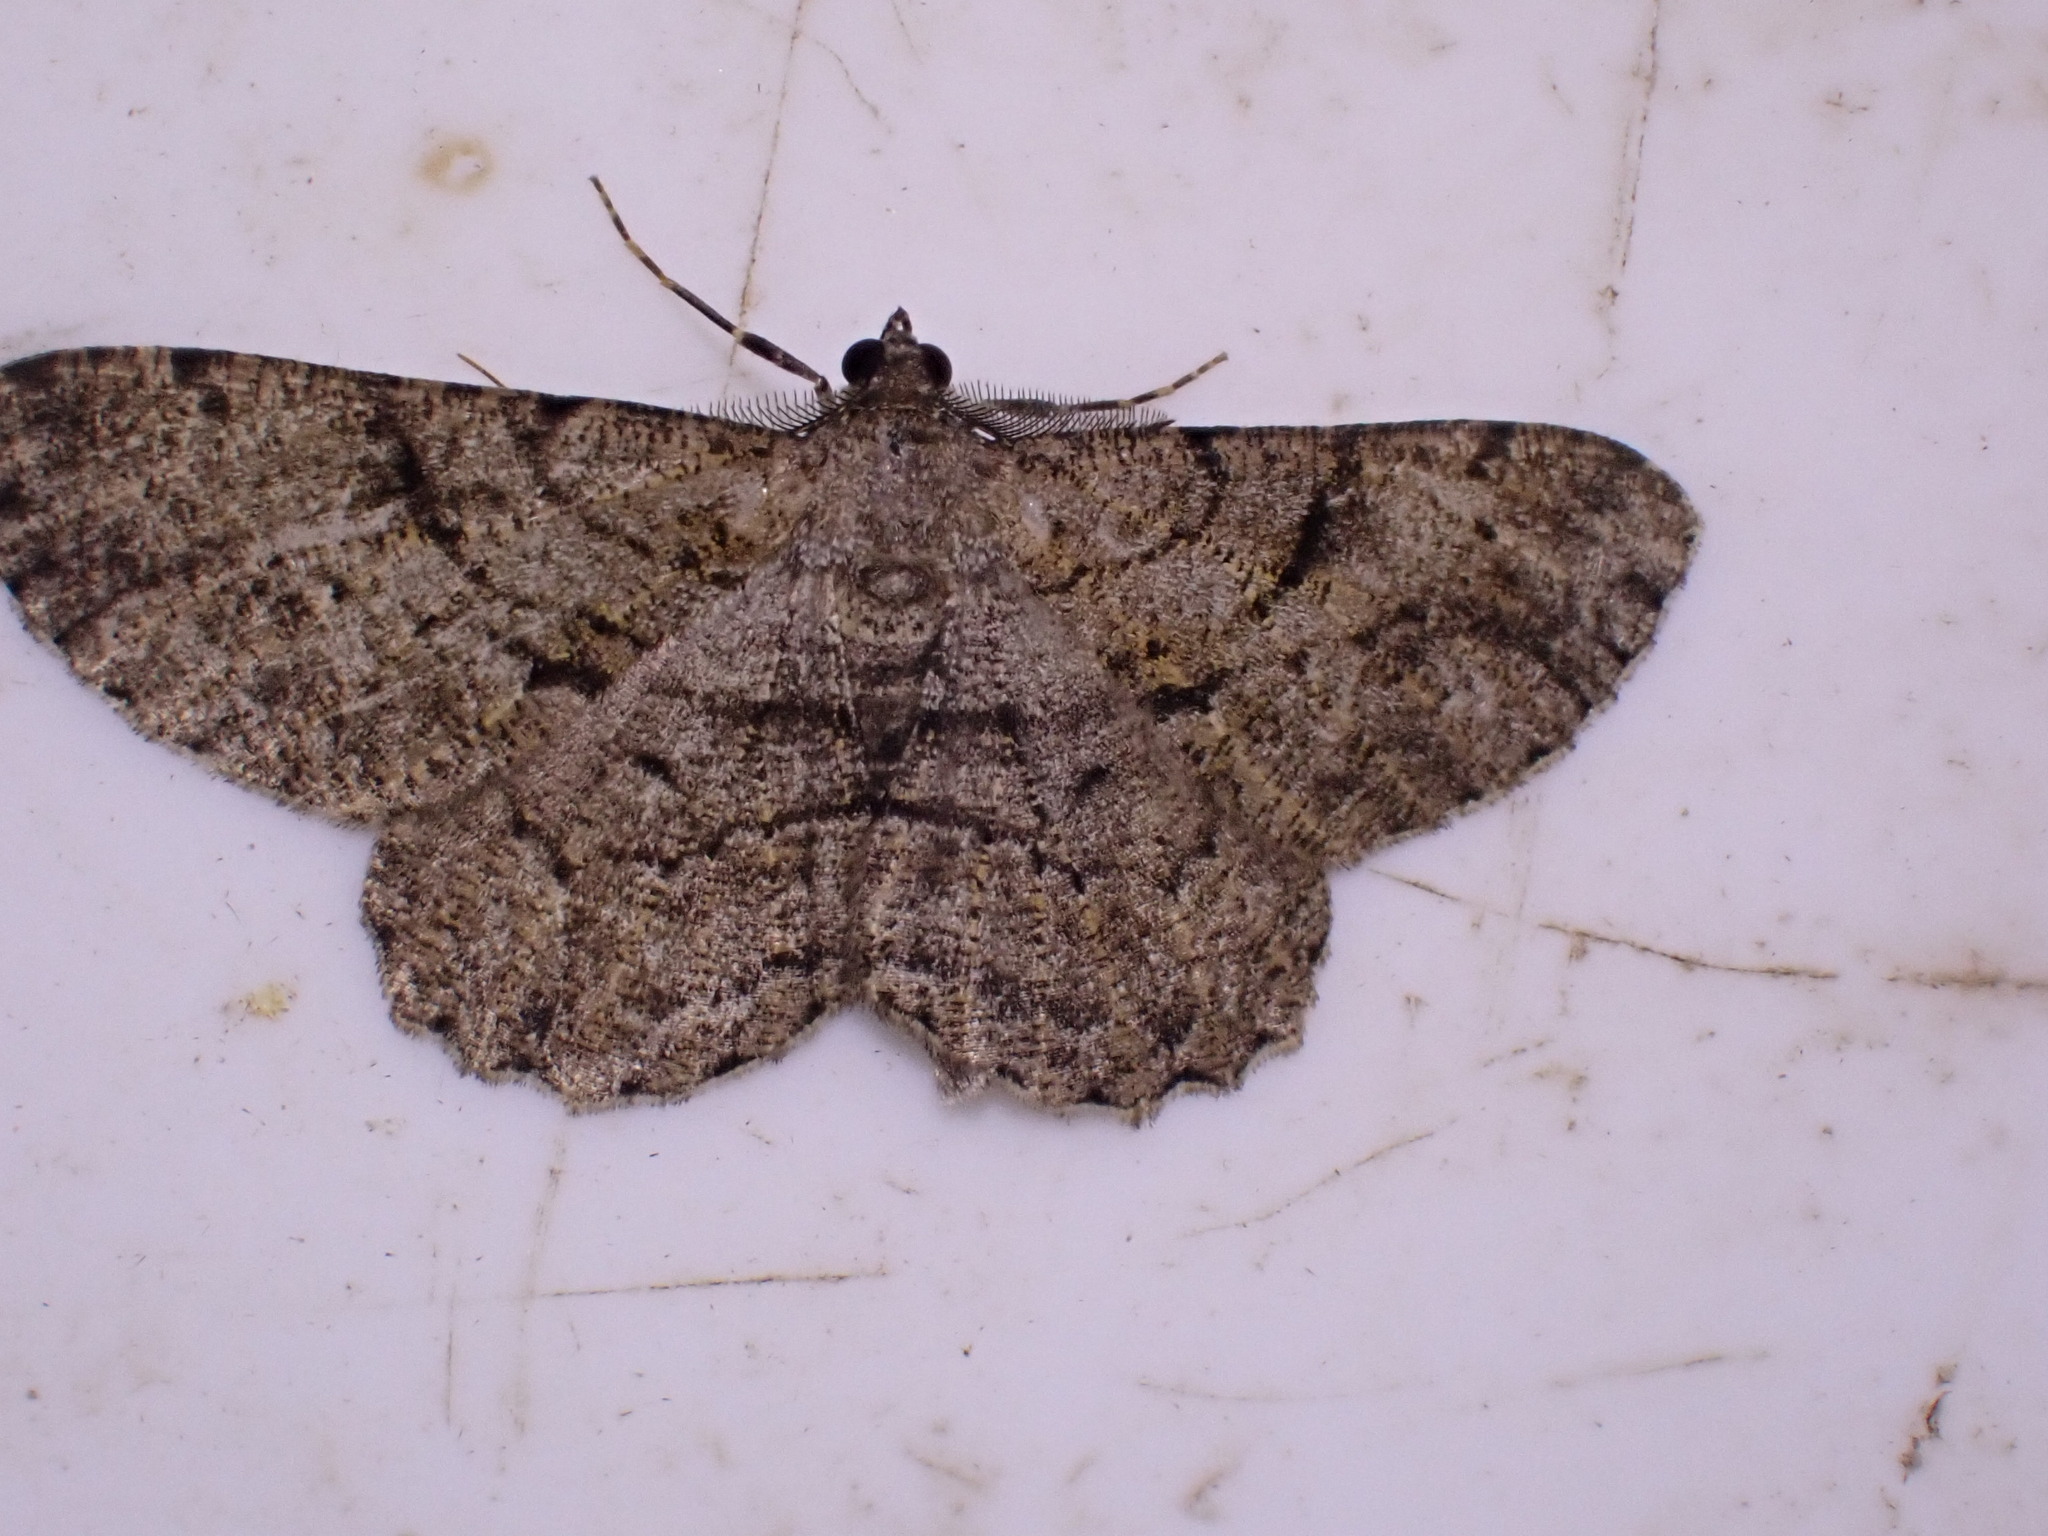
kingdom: Animalia
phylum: Arthropoda
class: Insecta
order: Lepidoptera
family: Geometridae
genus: Peribatodes
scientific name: Peribatodes rhomboidaria
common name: Willow beauty
